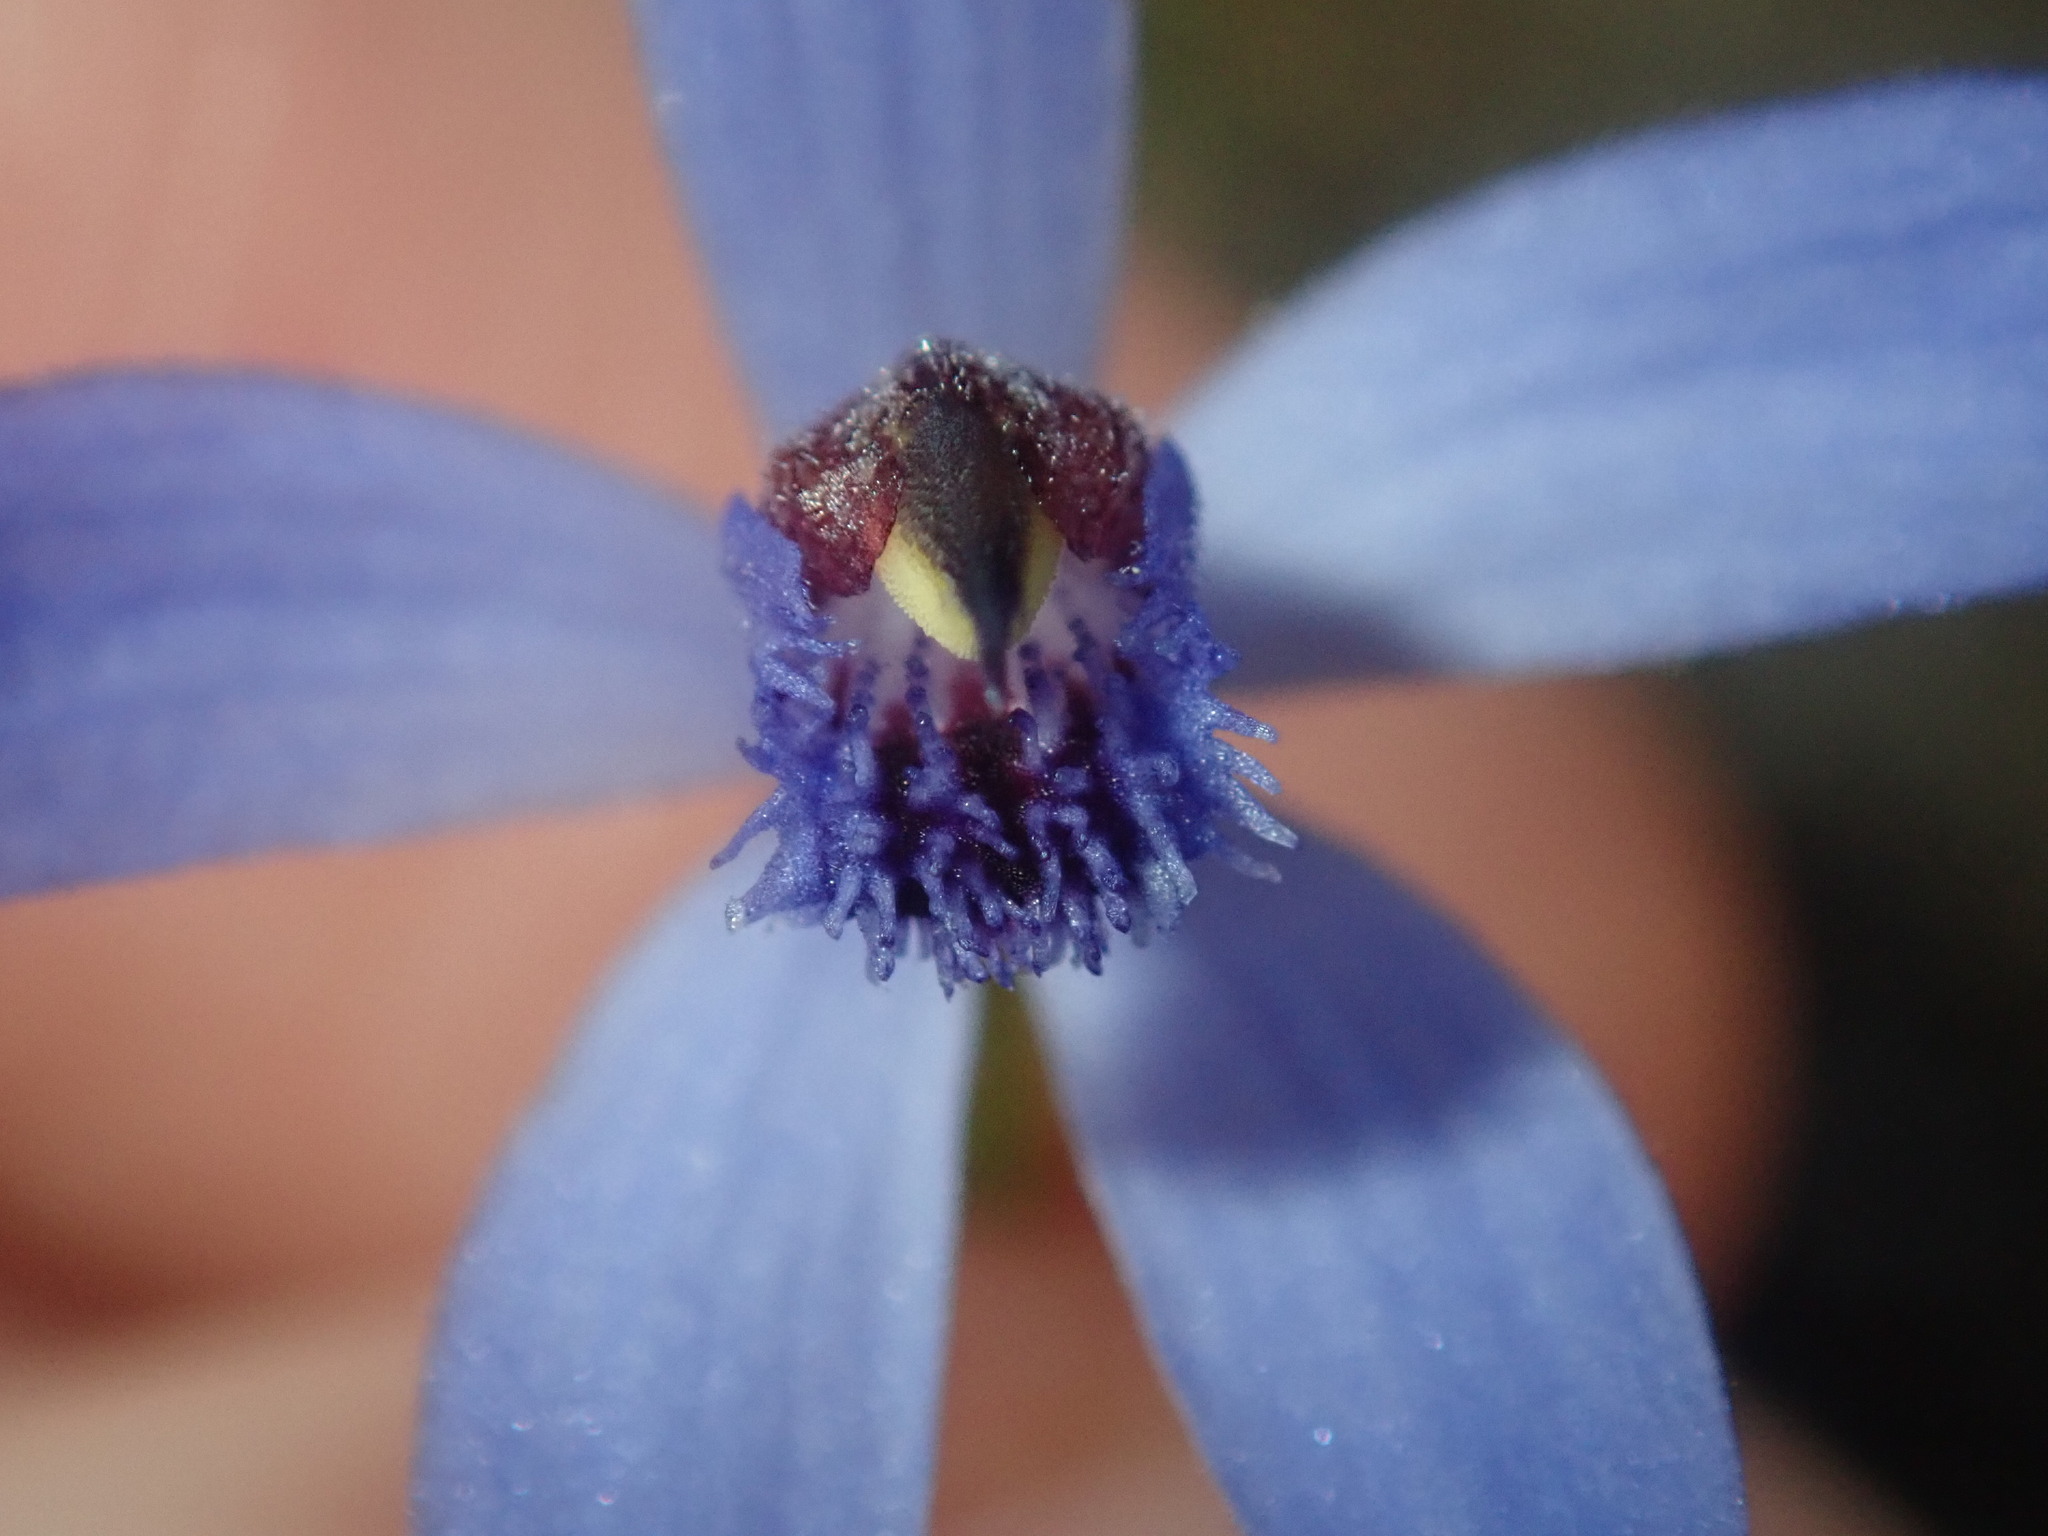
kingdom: Plantae
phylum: Tracheophyta
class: Liliopsida
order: Asparagales
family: Orchidaceae
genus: Pheladenia
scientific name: Pheladenia deformis
